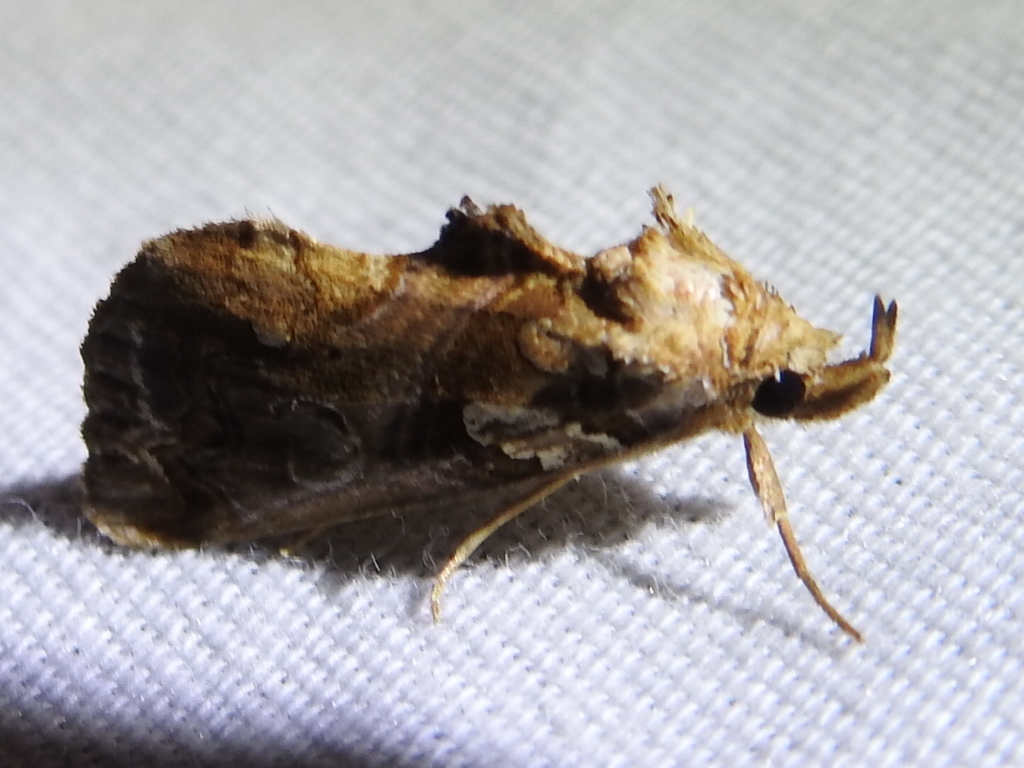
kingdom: Animalia
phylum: Arthropoda
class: Insecta
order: Lepidoptera
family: Erebidae
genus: Plusiodonta
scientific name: Plusiodonta compressipalpis
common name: Moonseed moth
